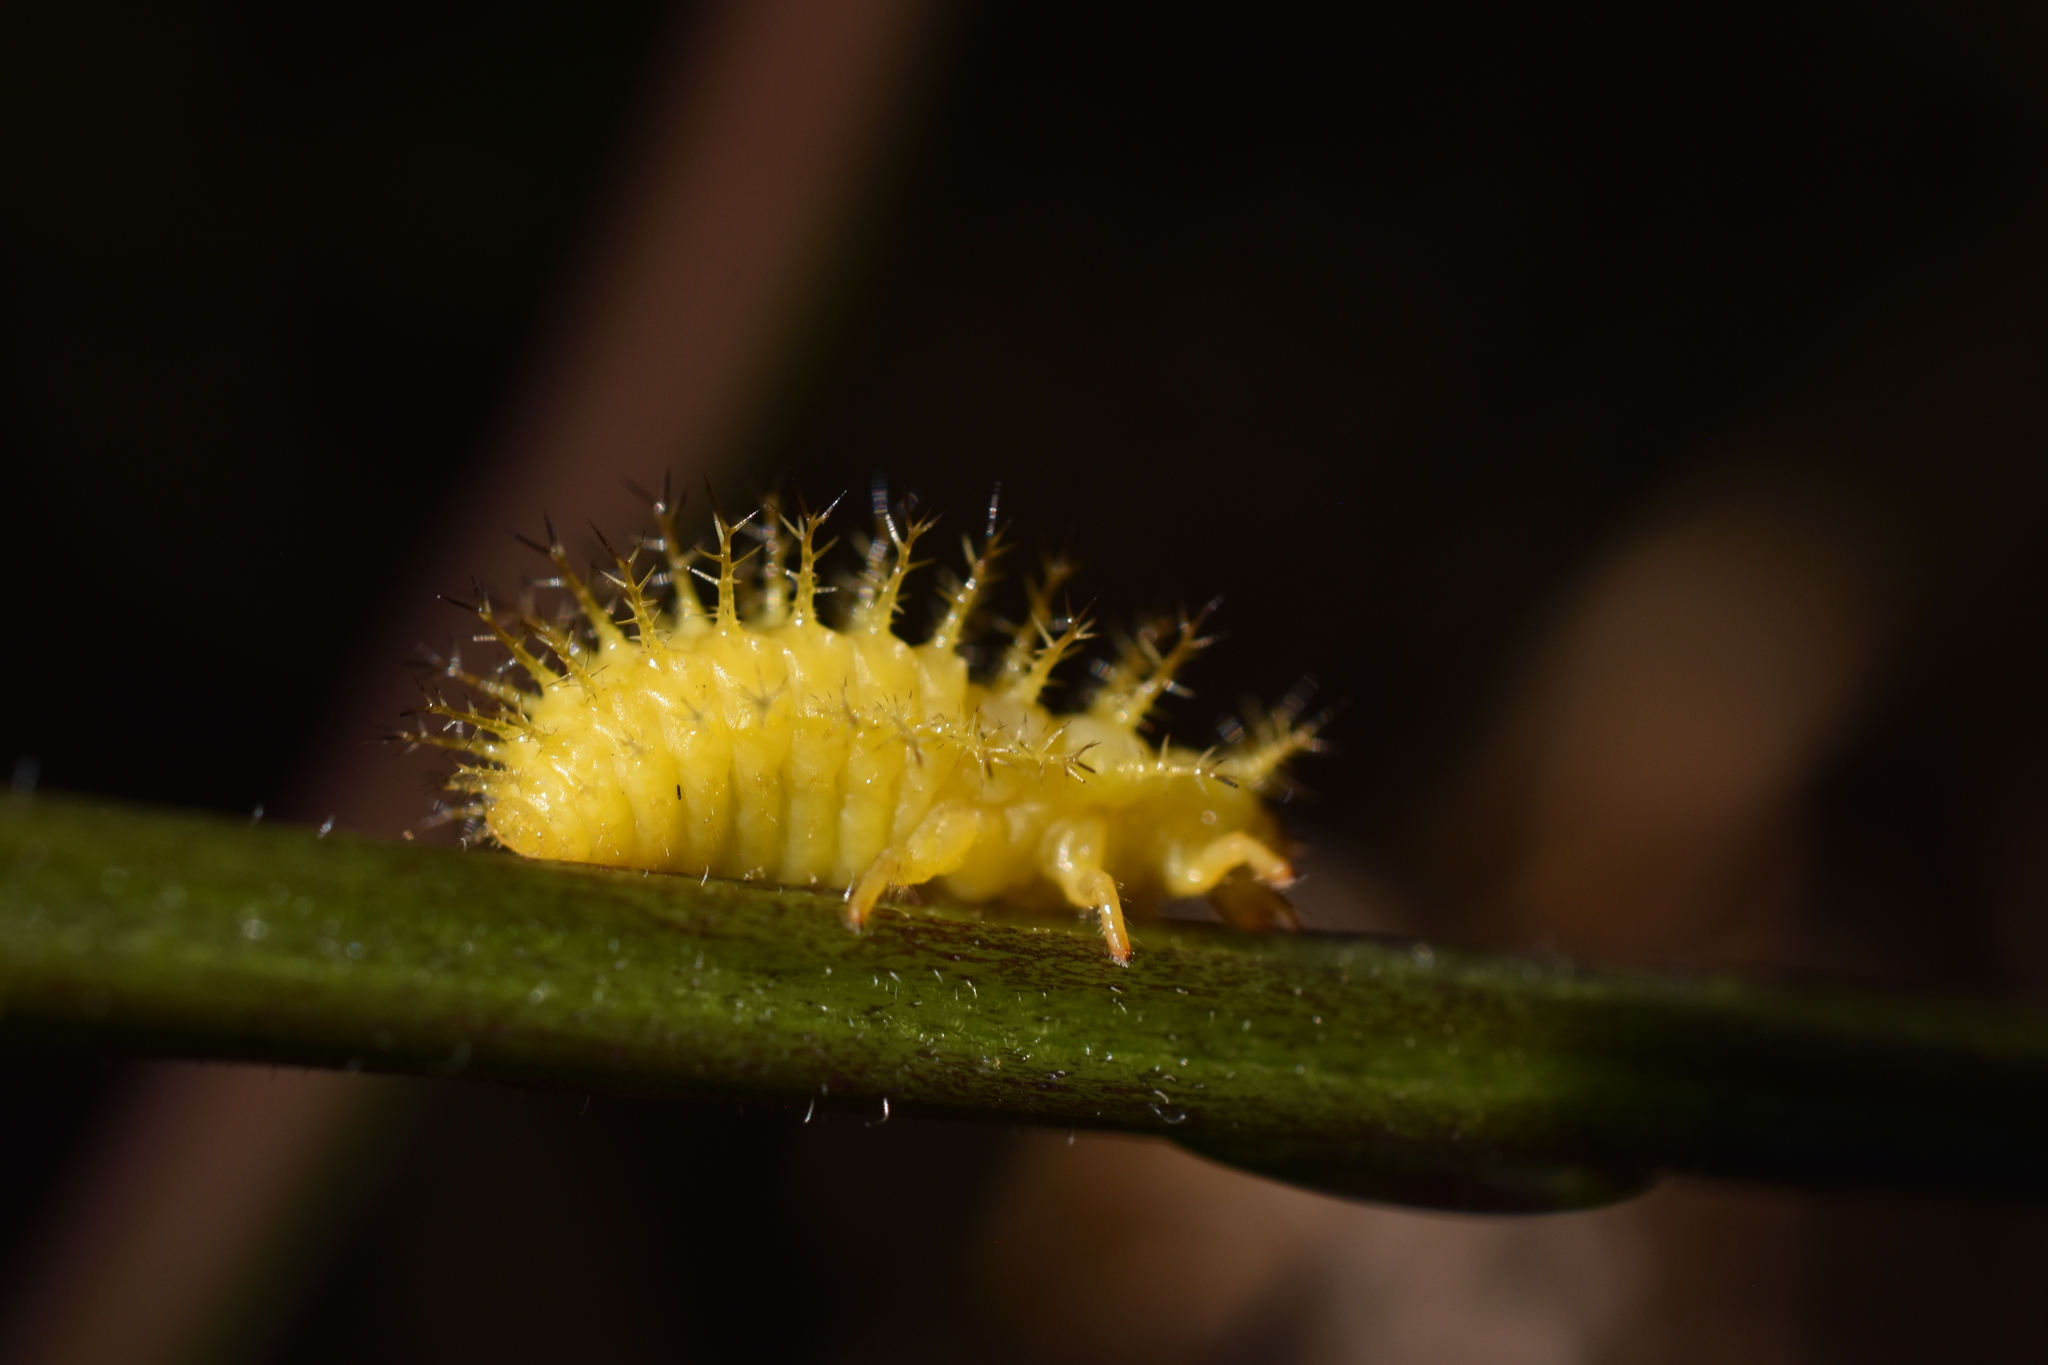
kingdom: Animalia
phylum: Arthropoda
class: Insecta
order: Coleoptera
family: Coccinellidae
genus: Epilachna
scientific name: Epilachna varivestis
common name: Ladybird beetle
